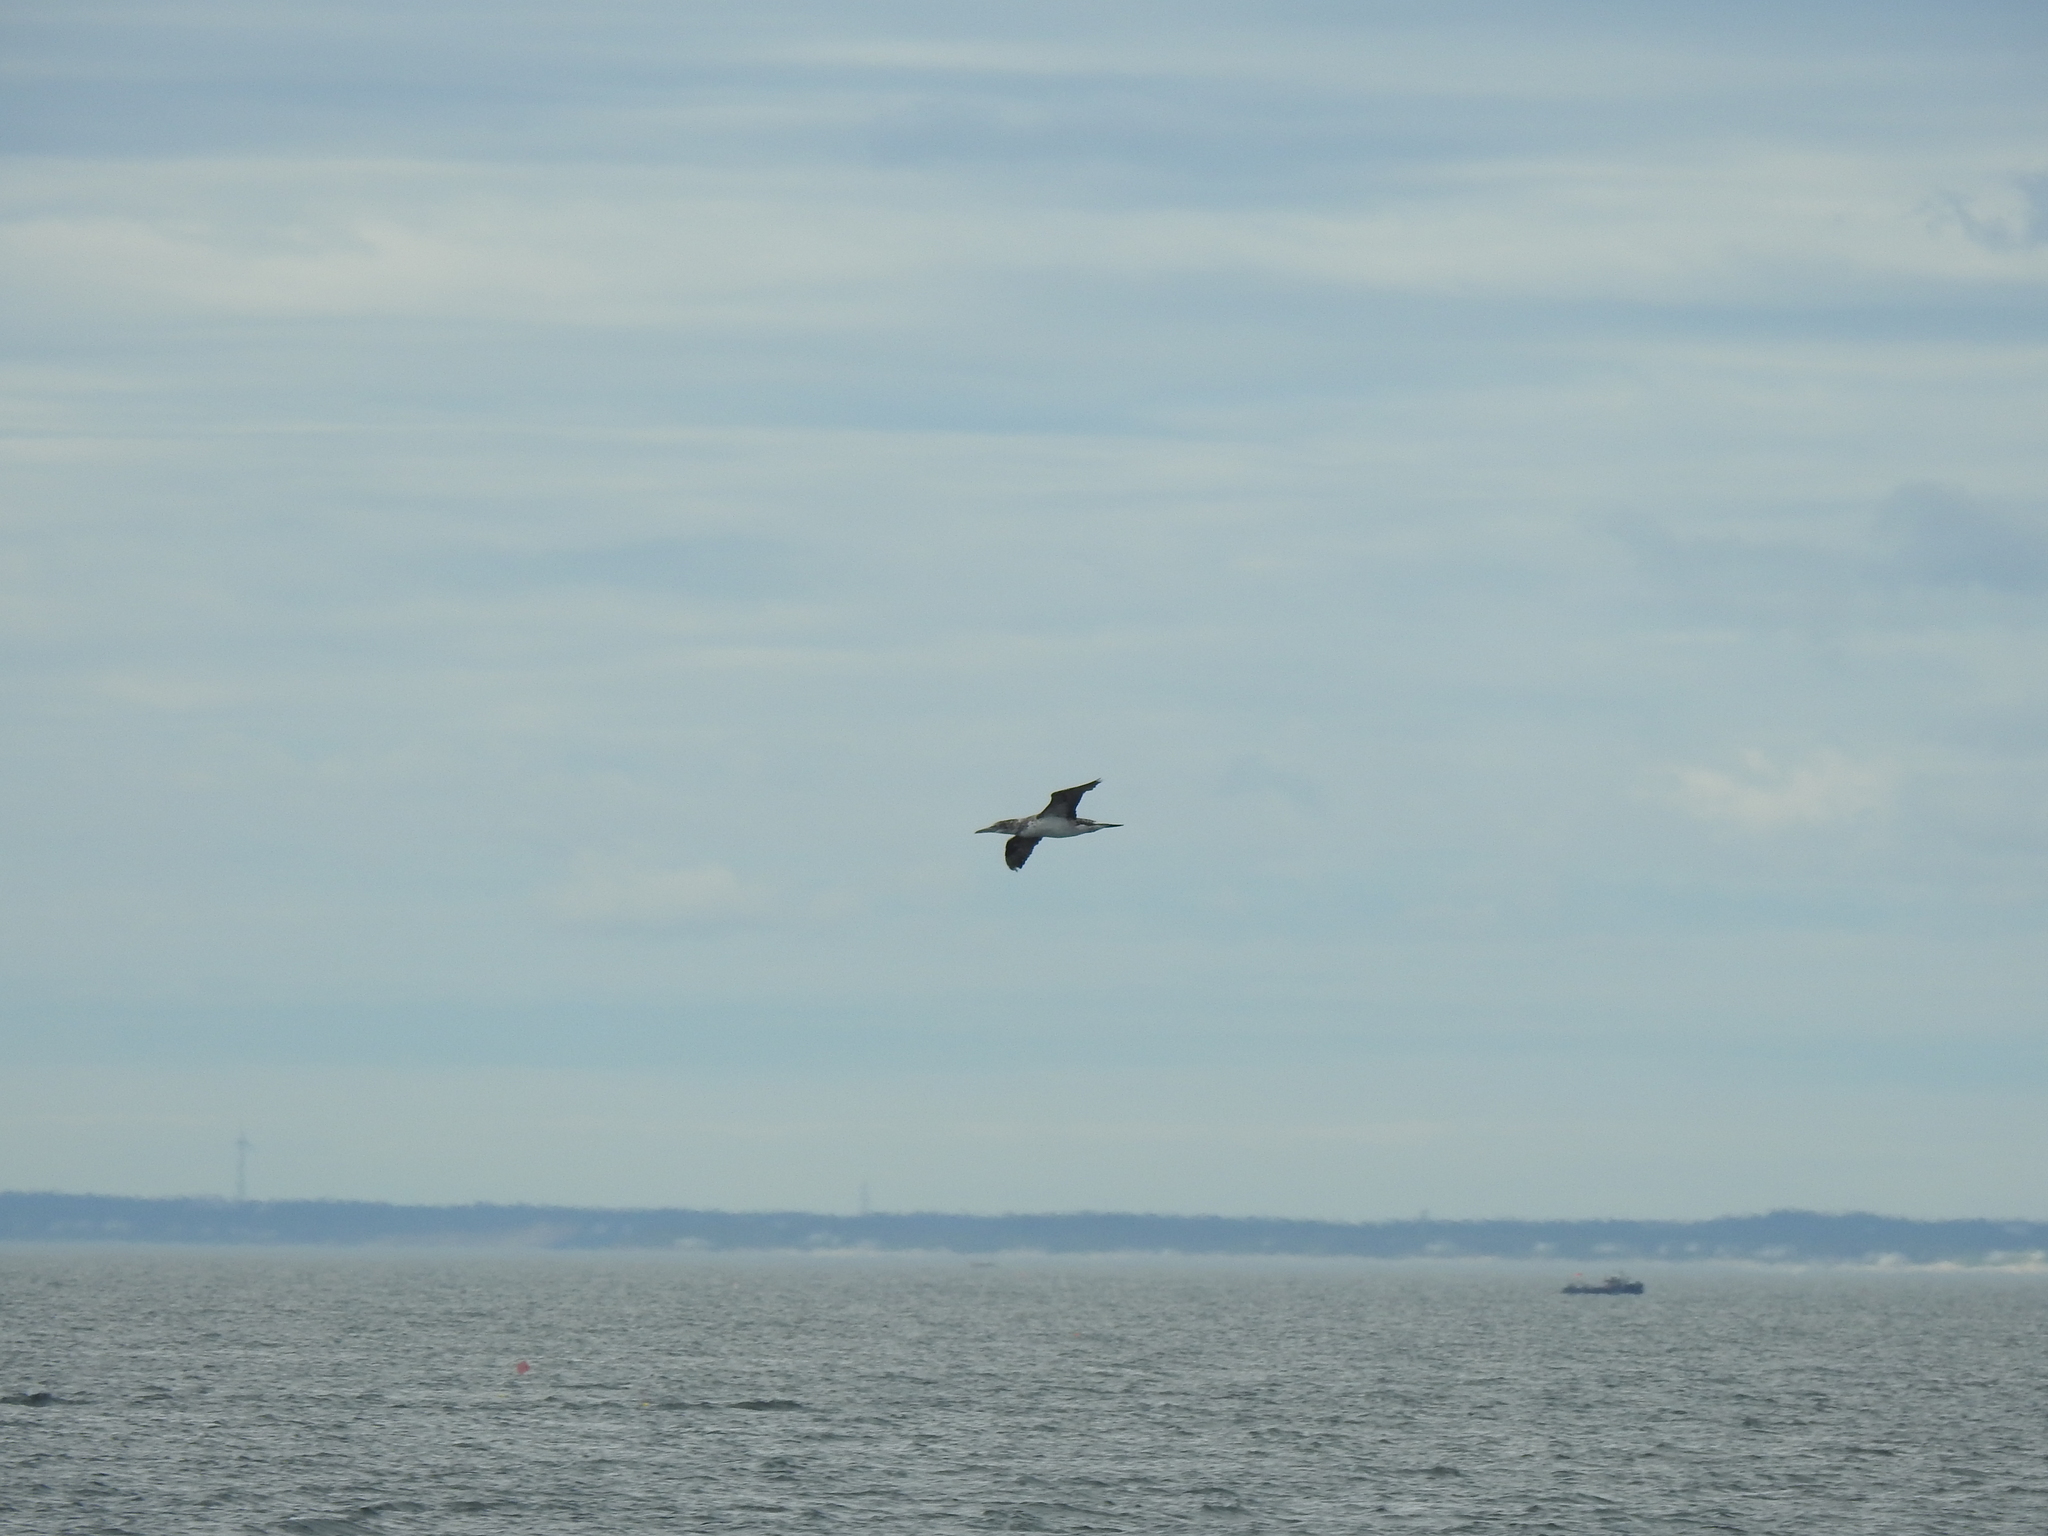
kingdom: Animalia
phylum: Chordata
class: Aves
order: Suliformes
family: Sulidae
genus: Morus
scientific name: Morus bassanus
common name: Northern gannet
